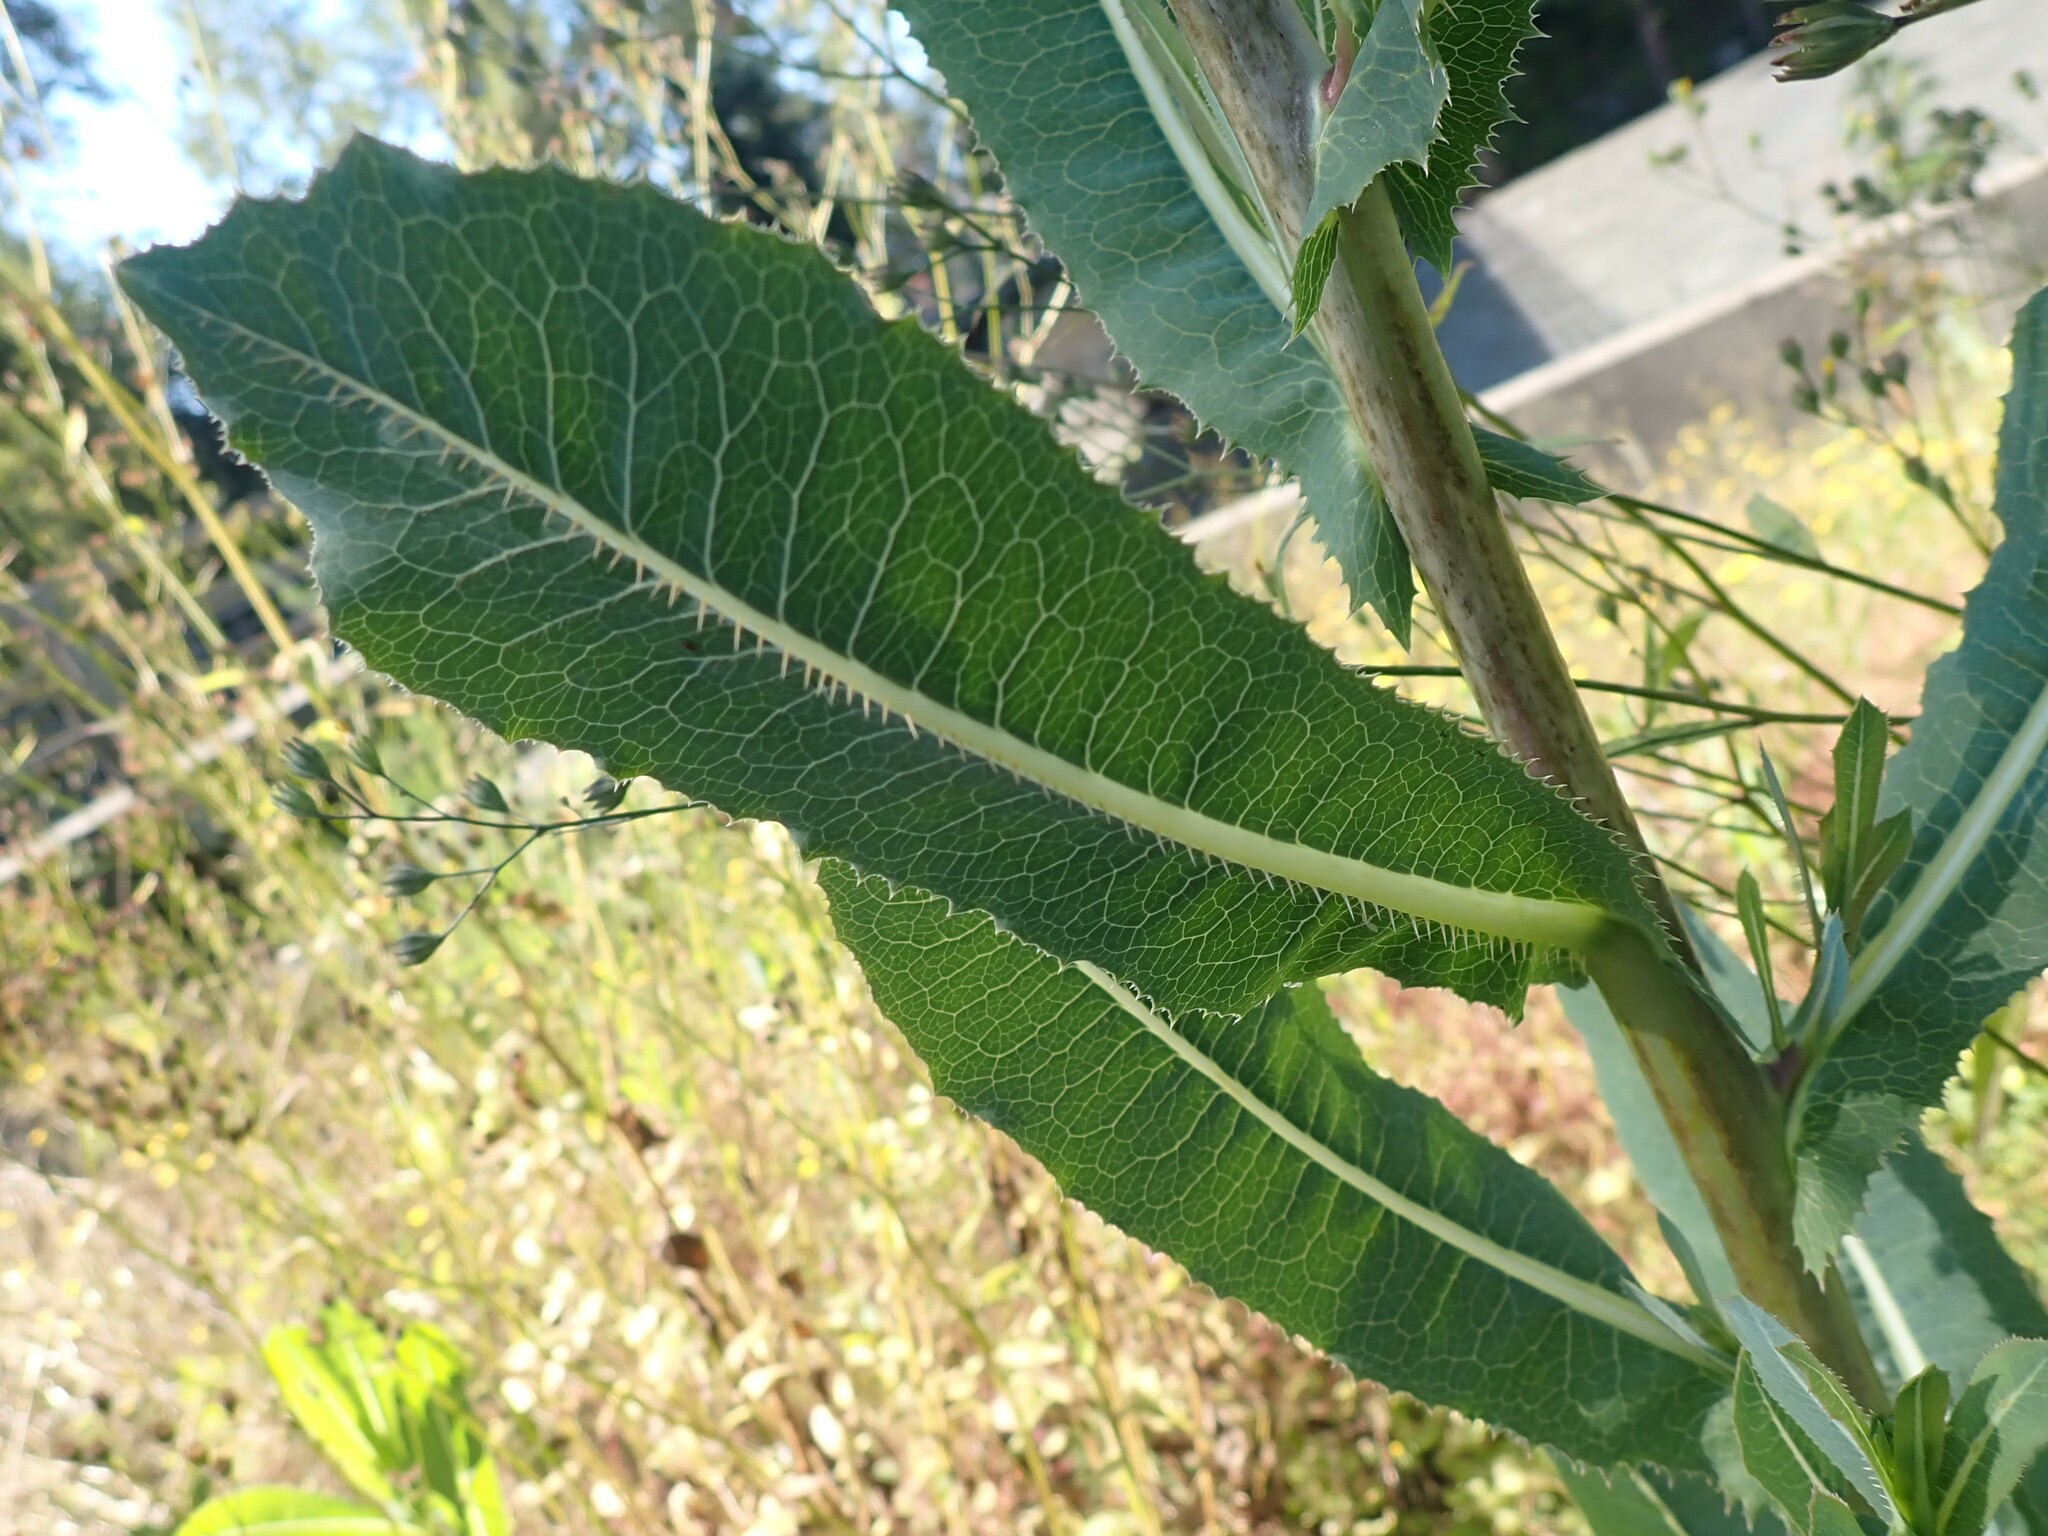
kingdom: Plantae
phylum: Tracheophyta
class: Magnoliopsida
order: Asterales
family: Asteraceae
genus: Lactuca
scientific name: Lactuca serriola
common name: Prickly lettuce
